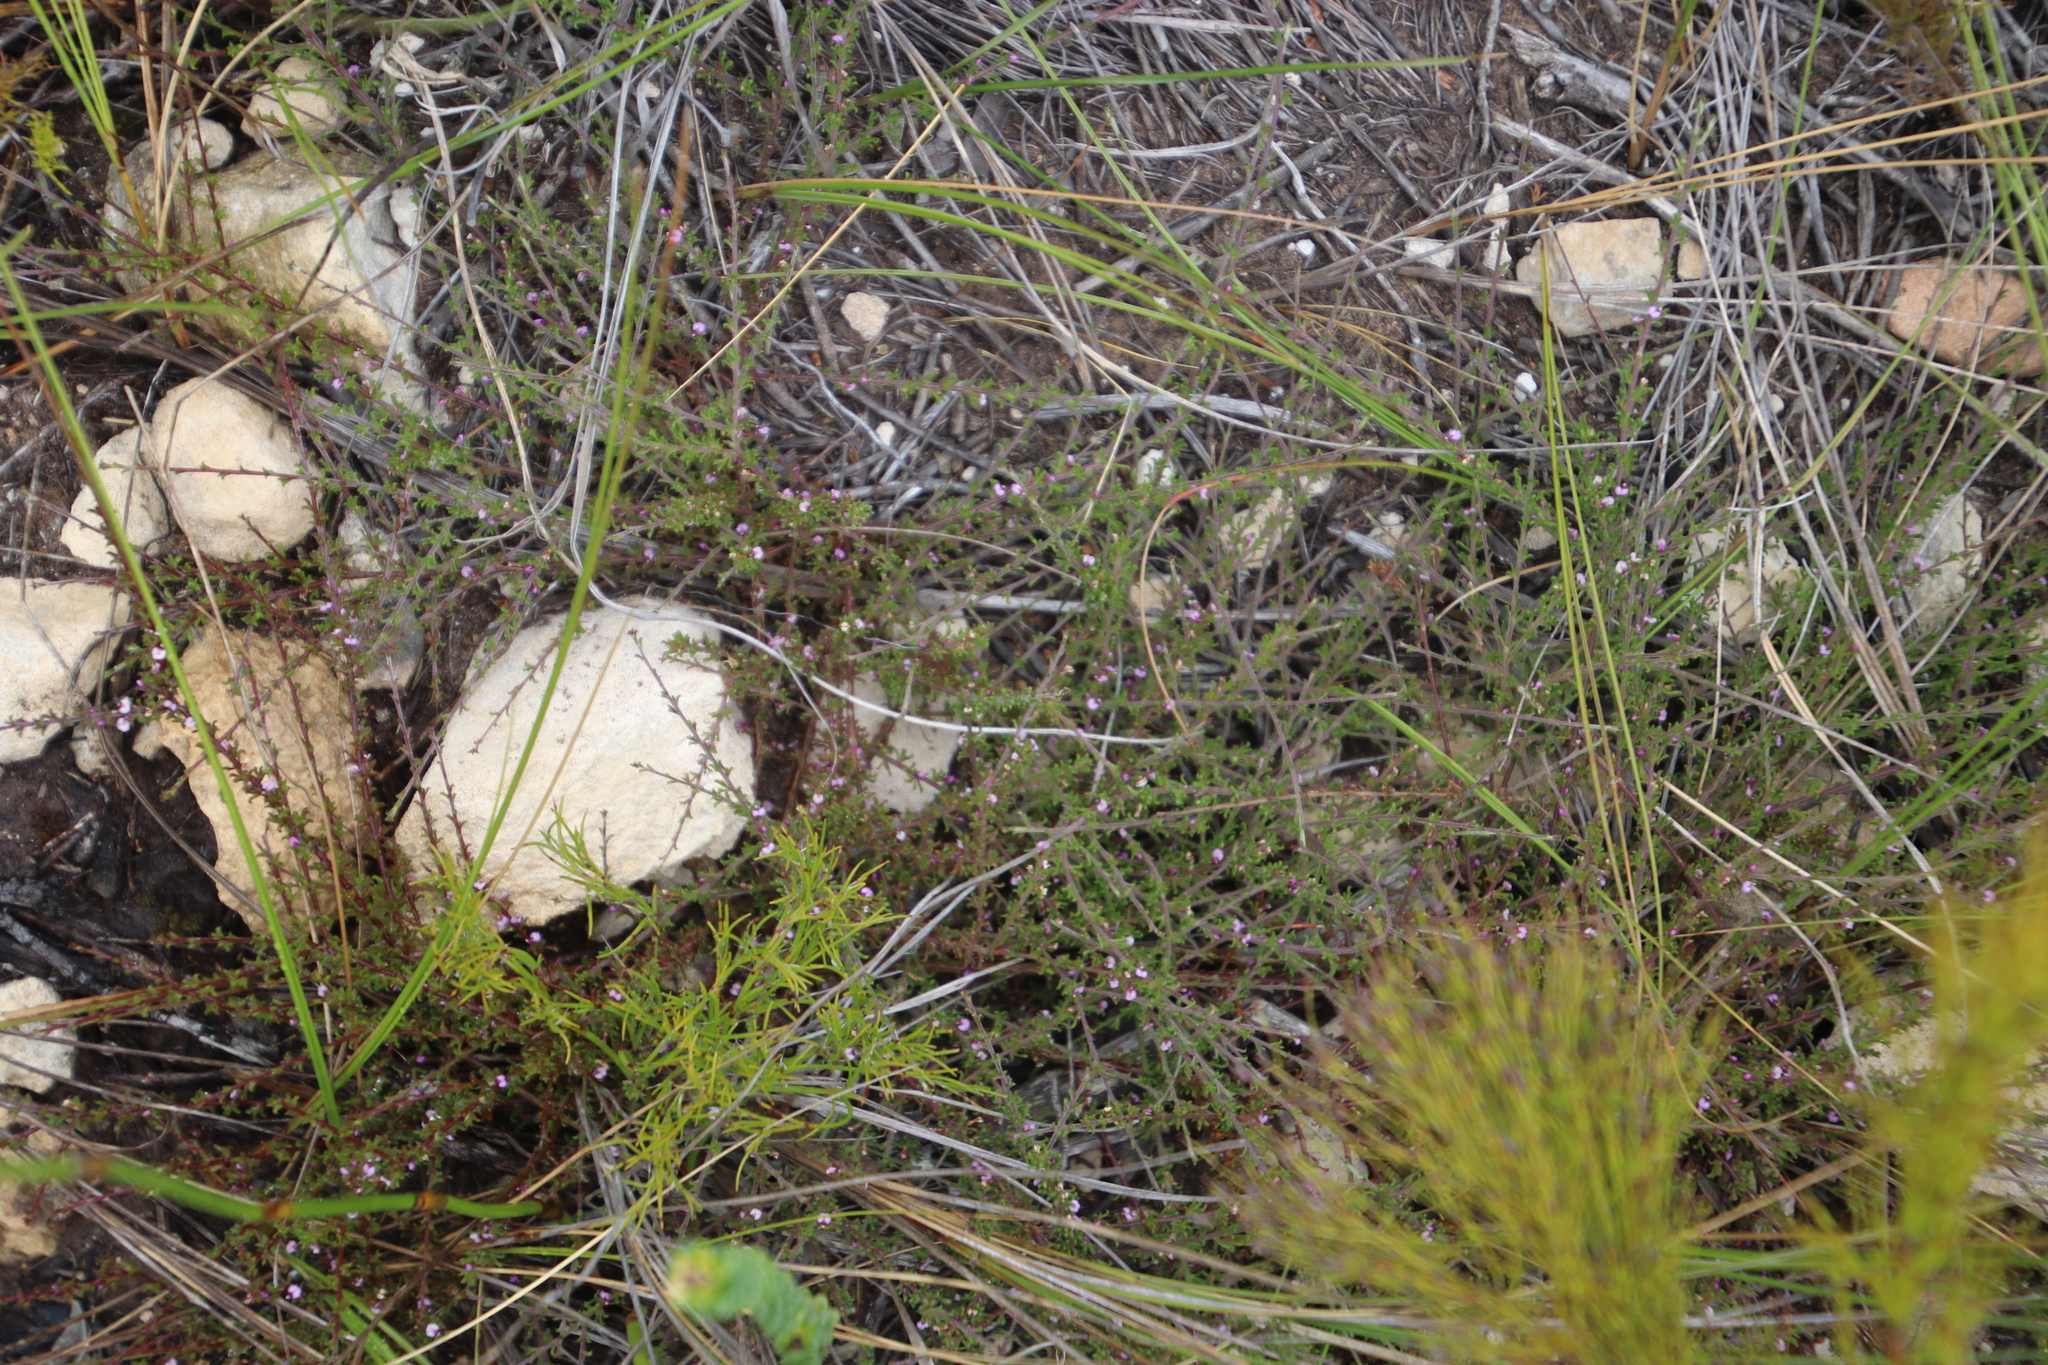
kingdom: Plantae
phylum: Tracheophyta
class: Magnoliopsida
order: Fabales
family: Polygalaceae
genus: Muraltia
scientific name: Muraltia empleuridioides
